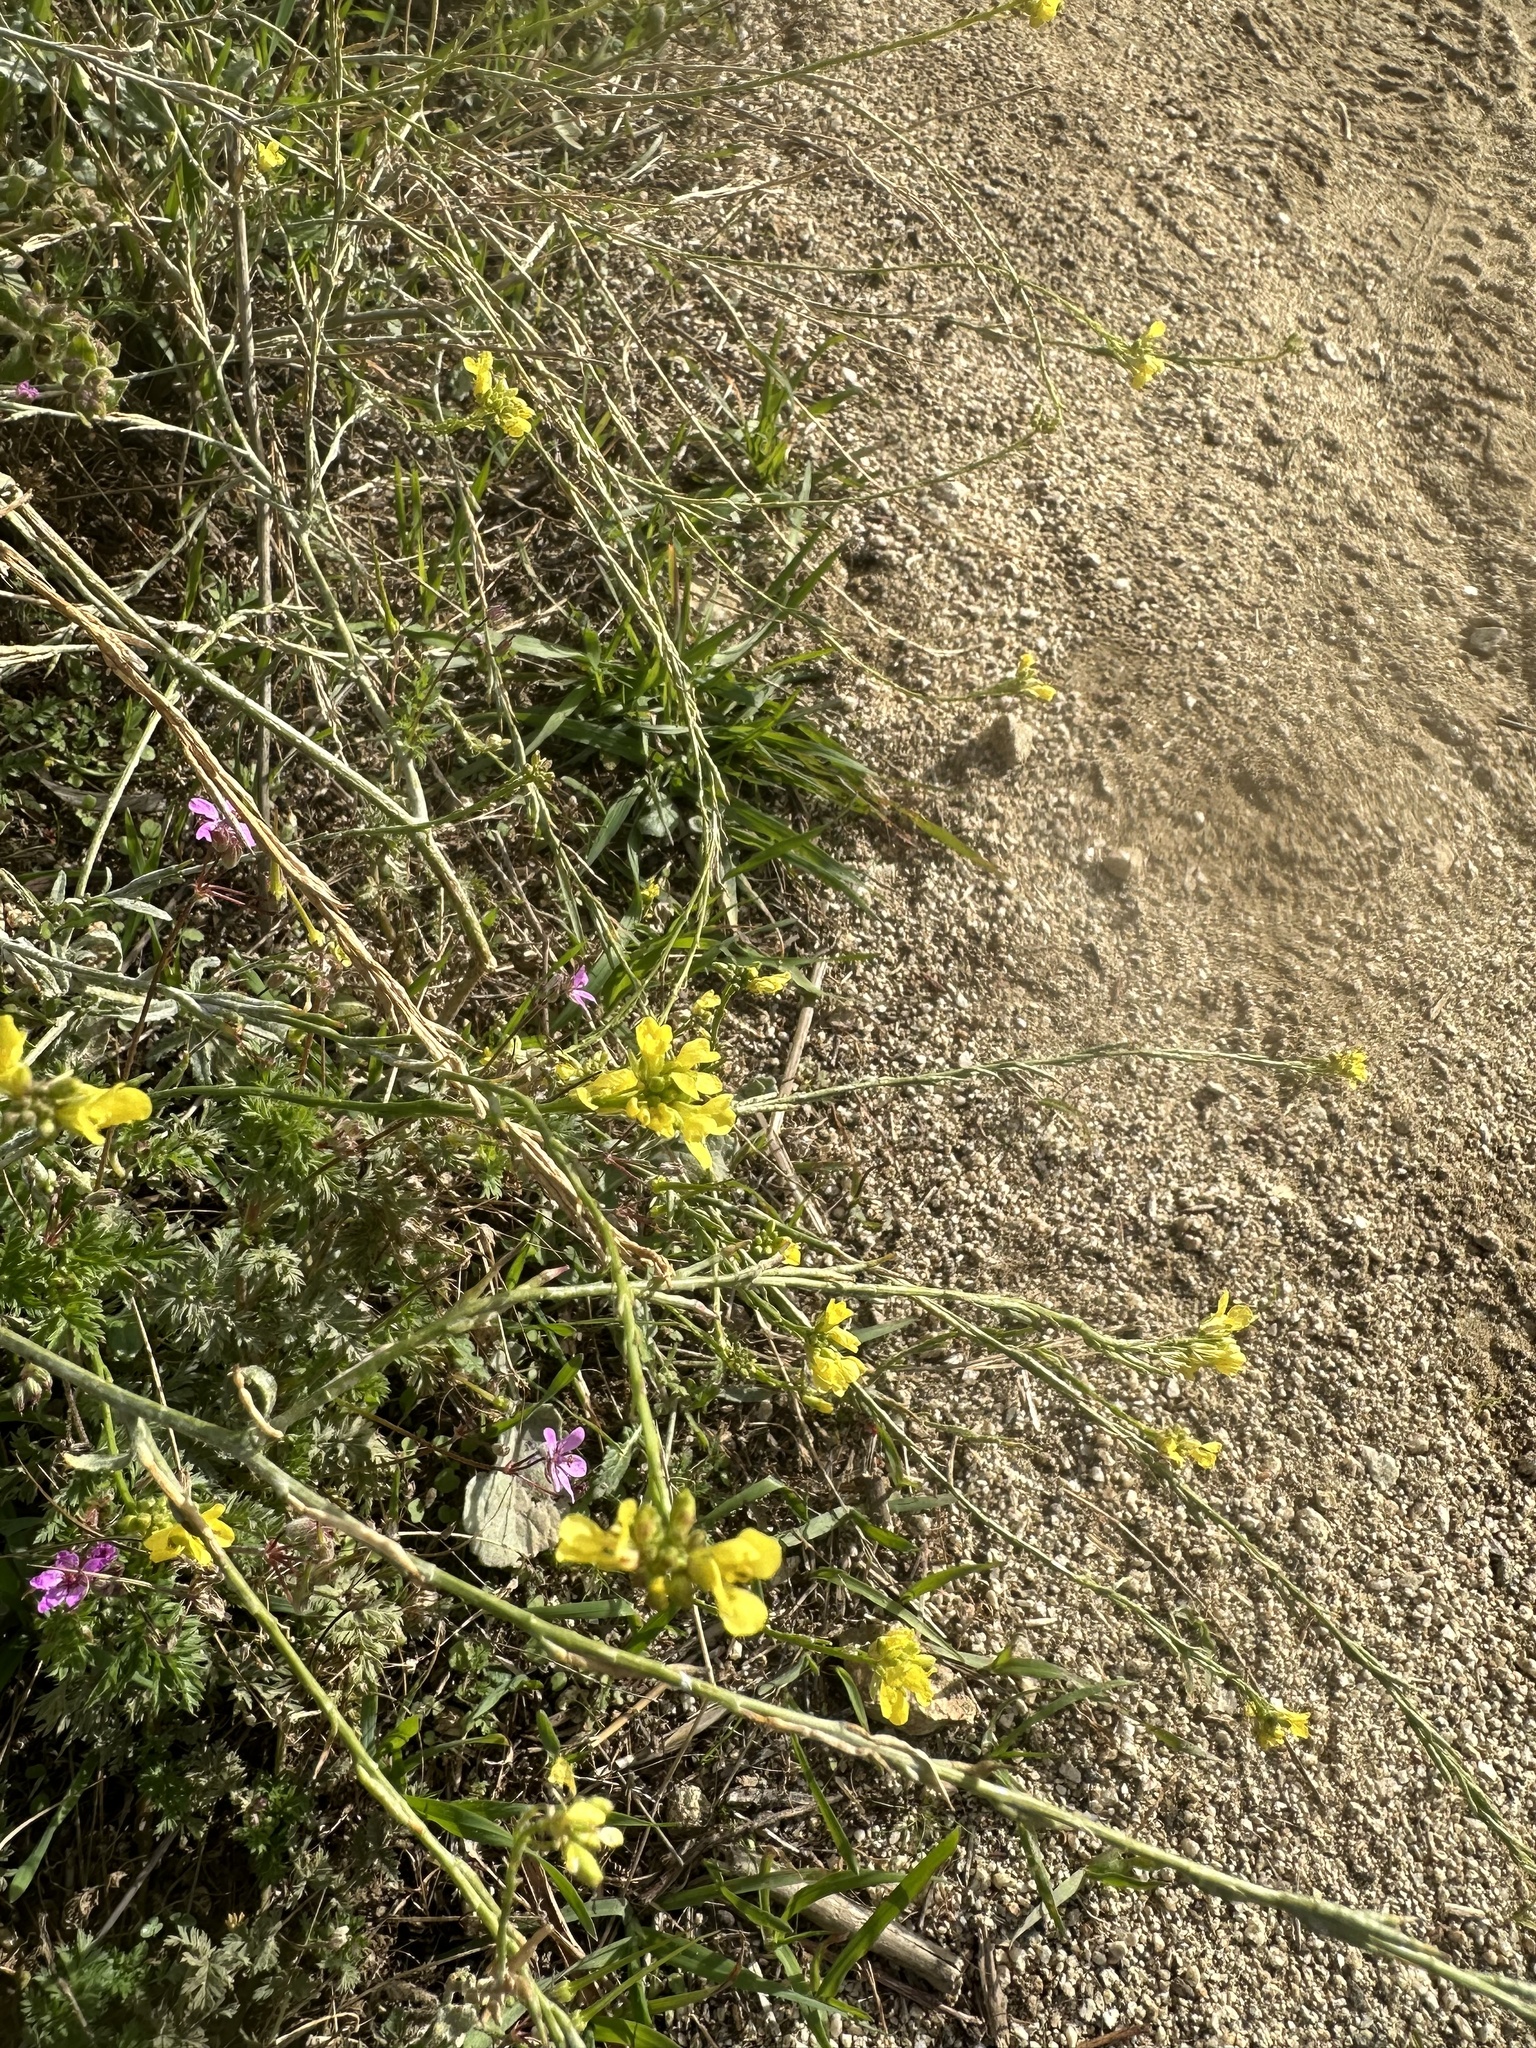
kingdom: Plantae
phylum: Tracheophyta
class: Magnoliopsida
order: Brassicales
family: Brassicaceae
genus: Brassica
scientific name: Brassica nigra
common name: Black mustard
